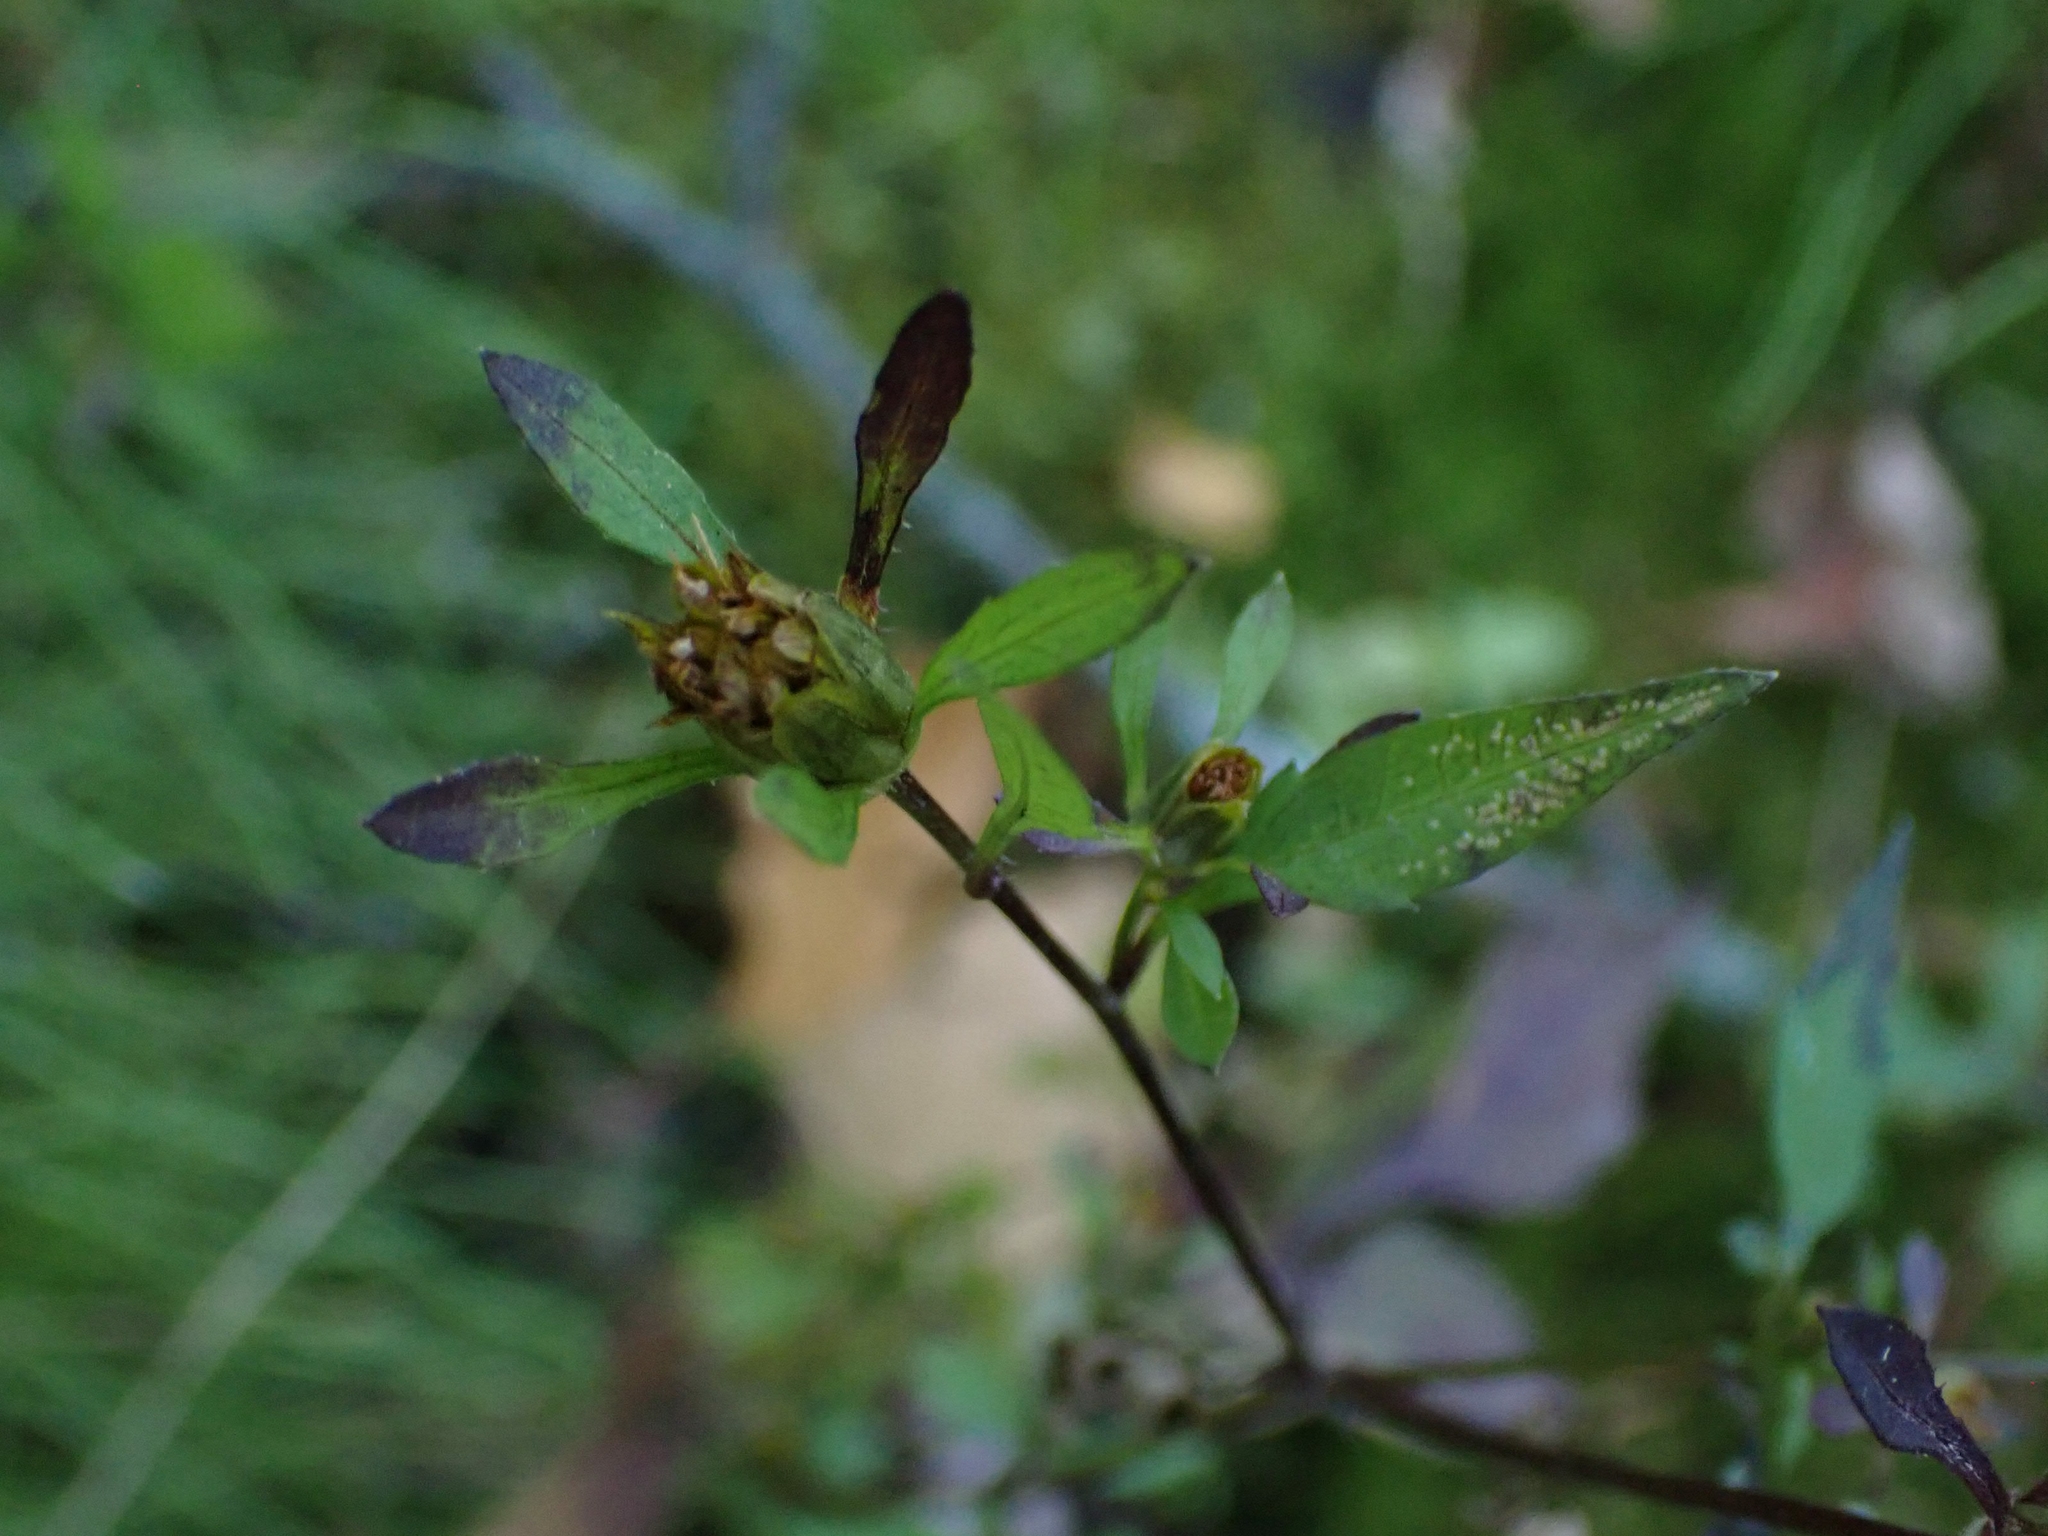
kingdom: Plantae
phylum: Tracheophyta
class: Magnoliopsida
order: Asterales
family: Asteraceae
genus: Bidens
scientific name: Bidens frondosa
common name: Beggarticks
